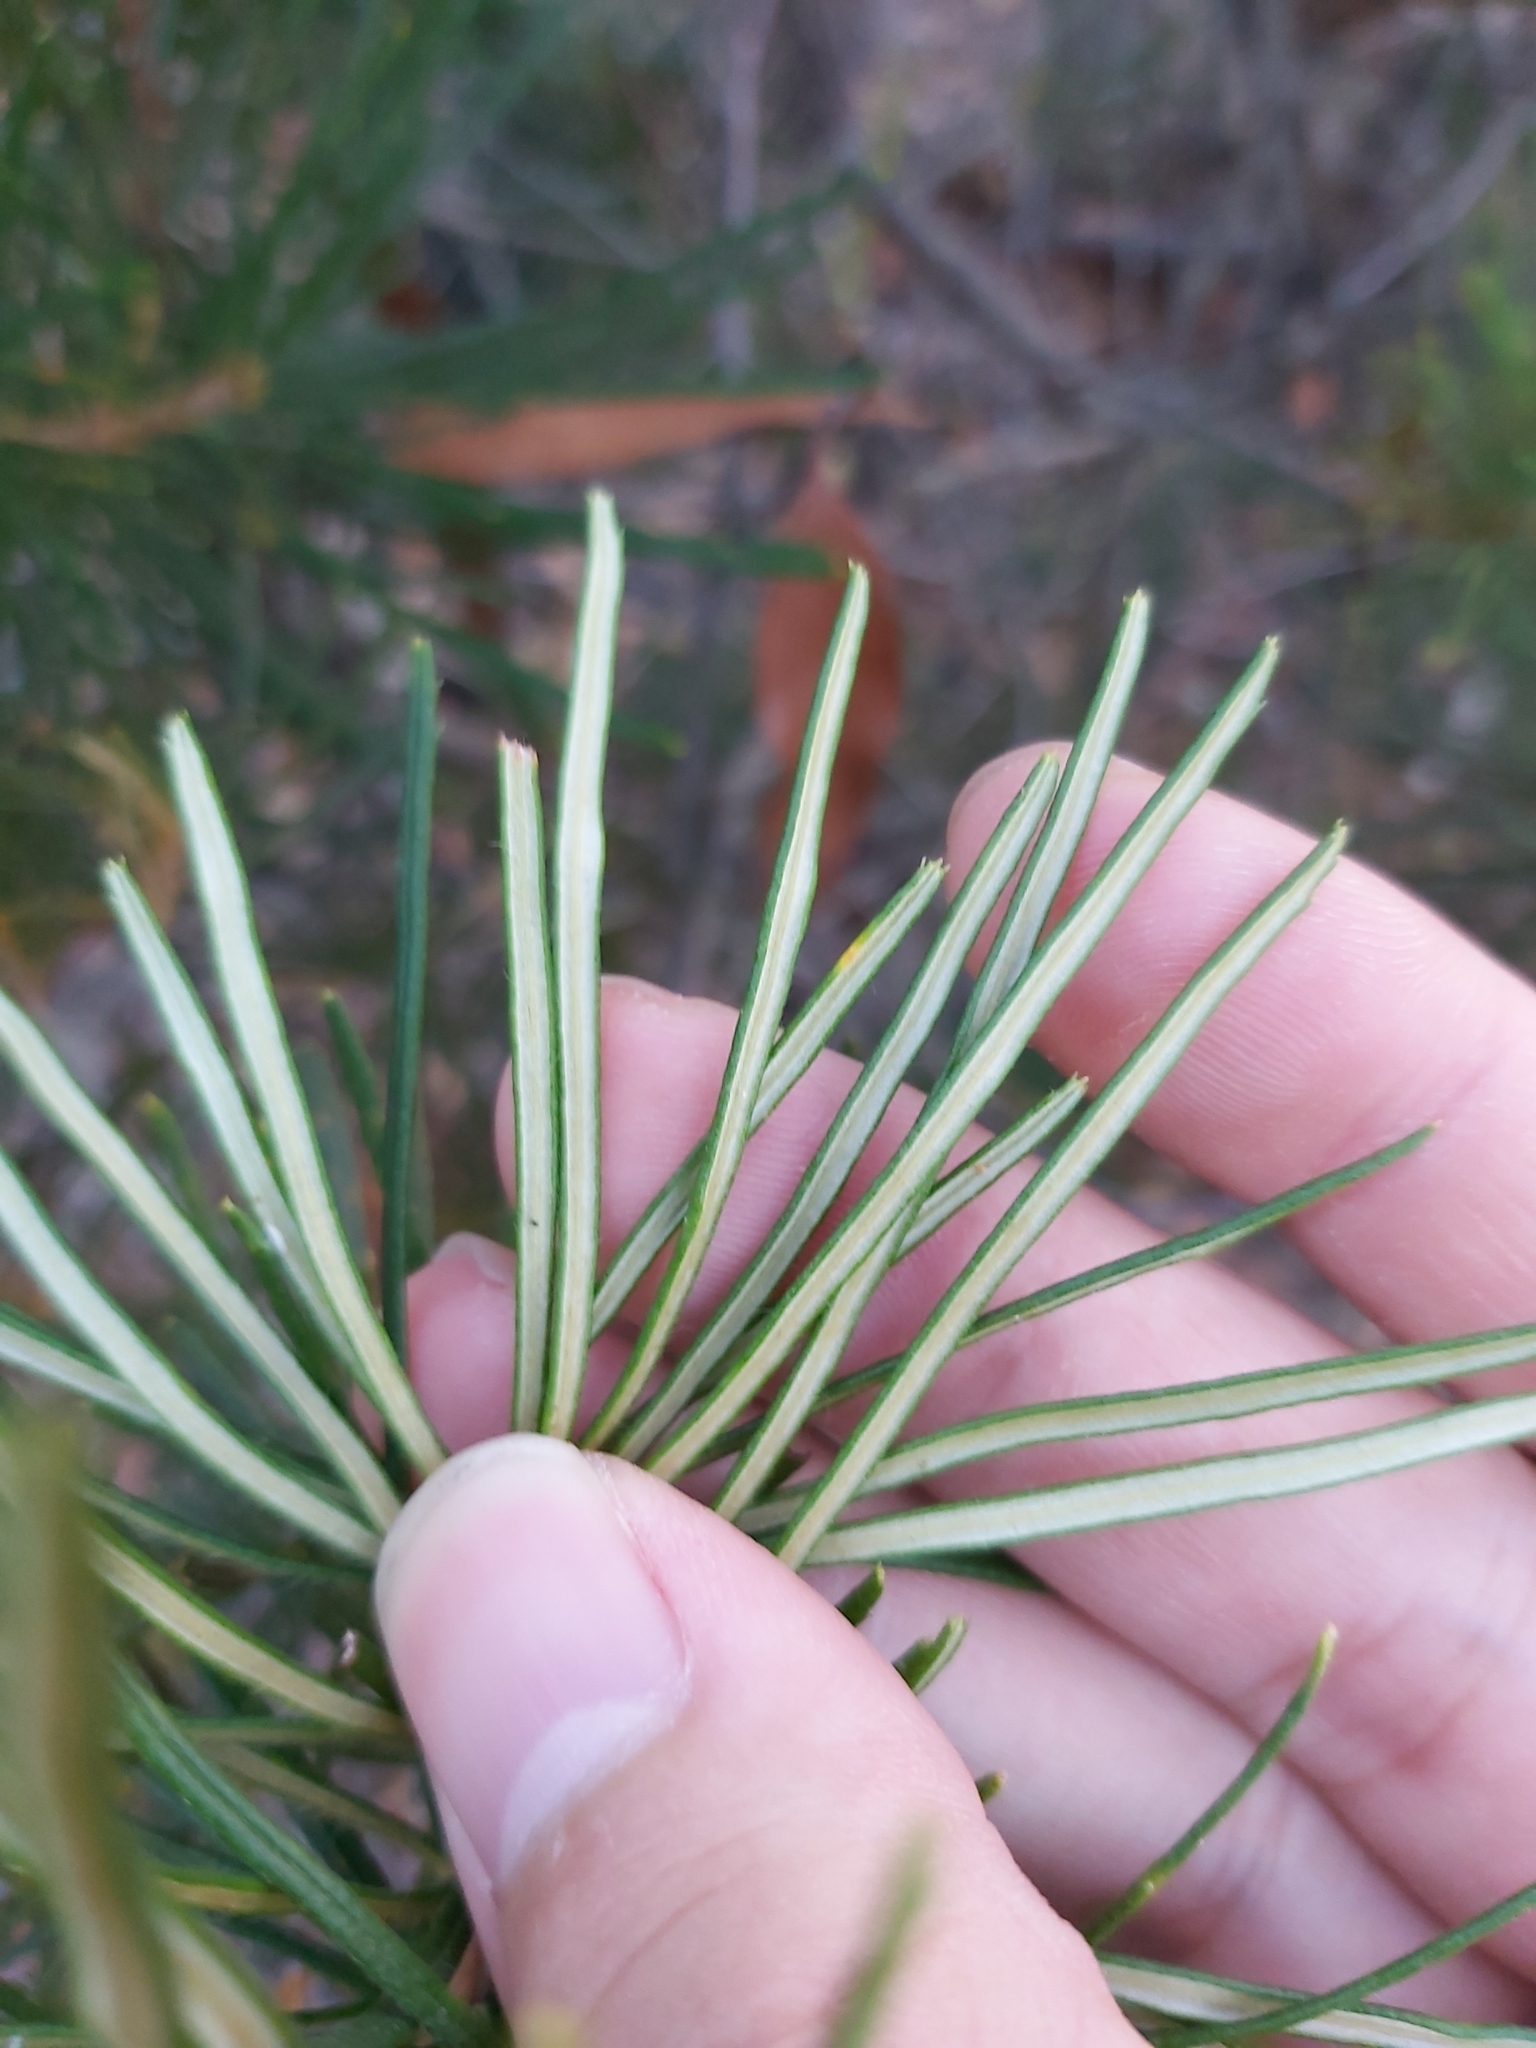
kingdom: Plantae
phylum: Tracheophyta
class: Magnoliopsida
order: Proteales
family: Proteaceae
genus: Banksia
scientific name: Banksia spinulosa
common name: Hairpin banksia
